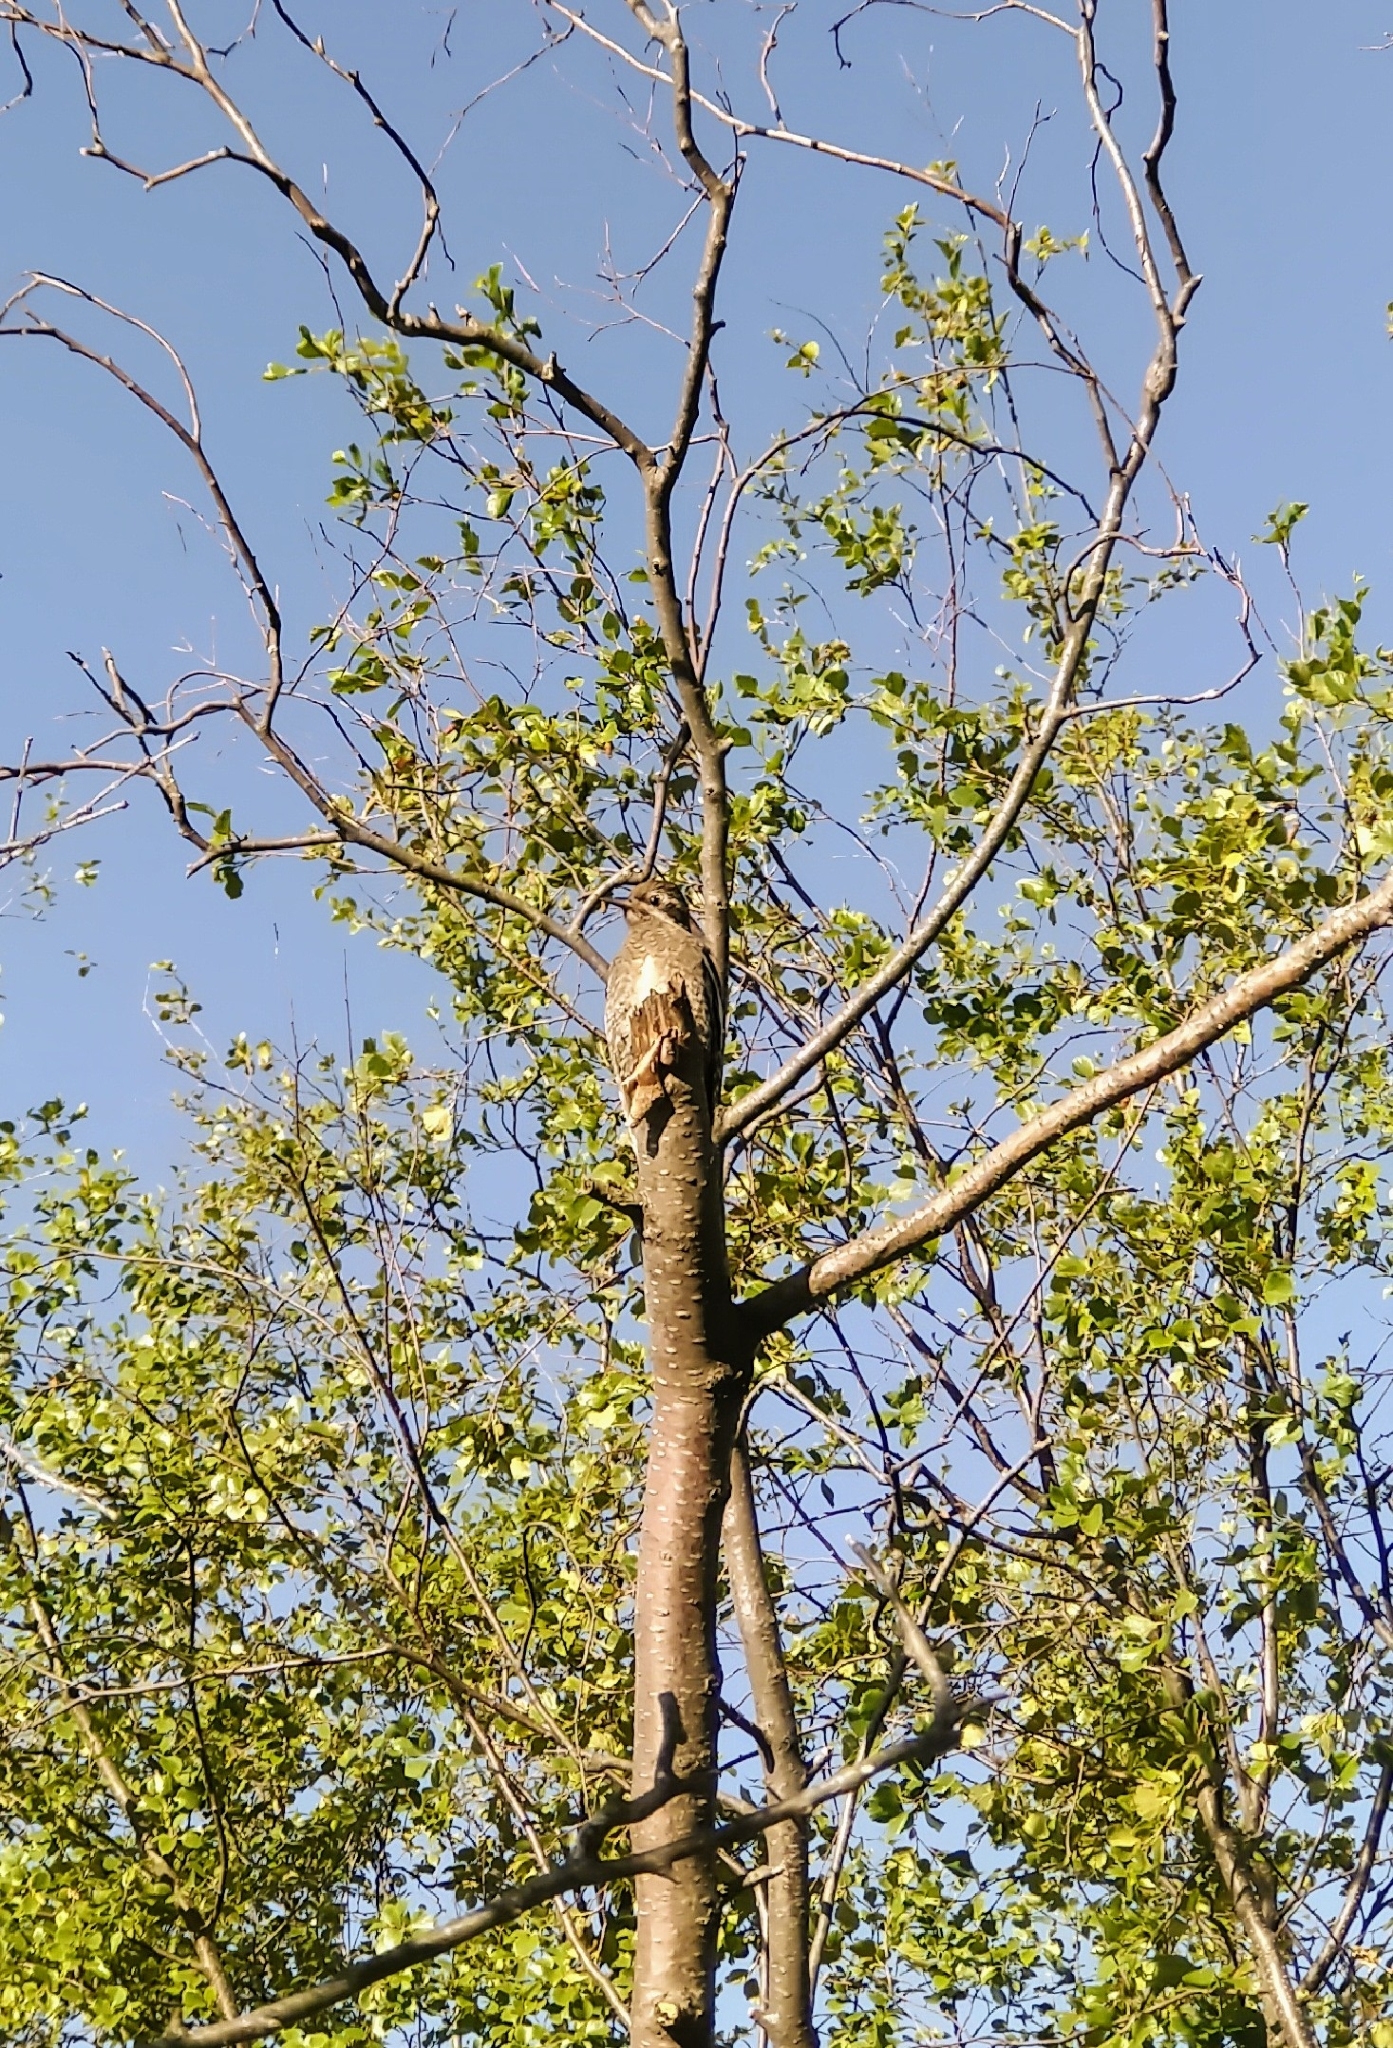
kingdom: Animalia
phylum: Chordata
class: Aves
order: Piciformes
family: Picidae
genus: Sphyrapicus
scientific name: Sphyrapicus varius
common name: Yellow-bellied sapsucker
